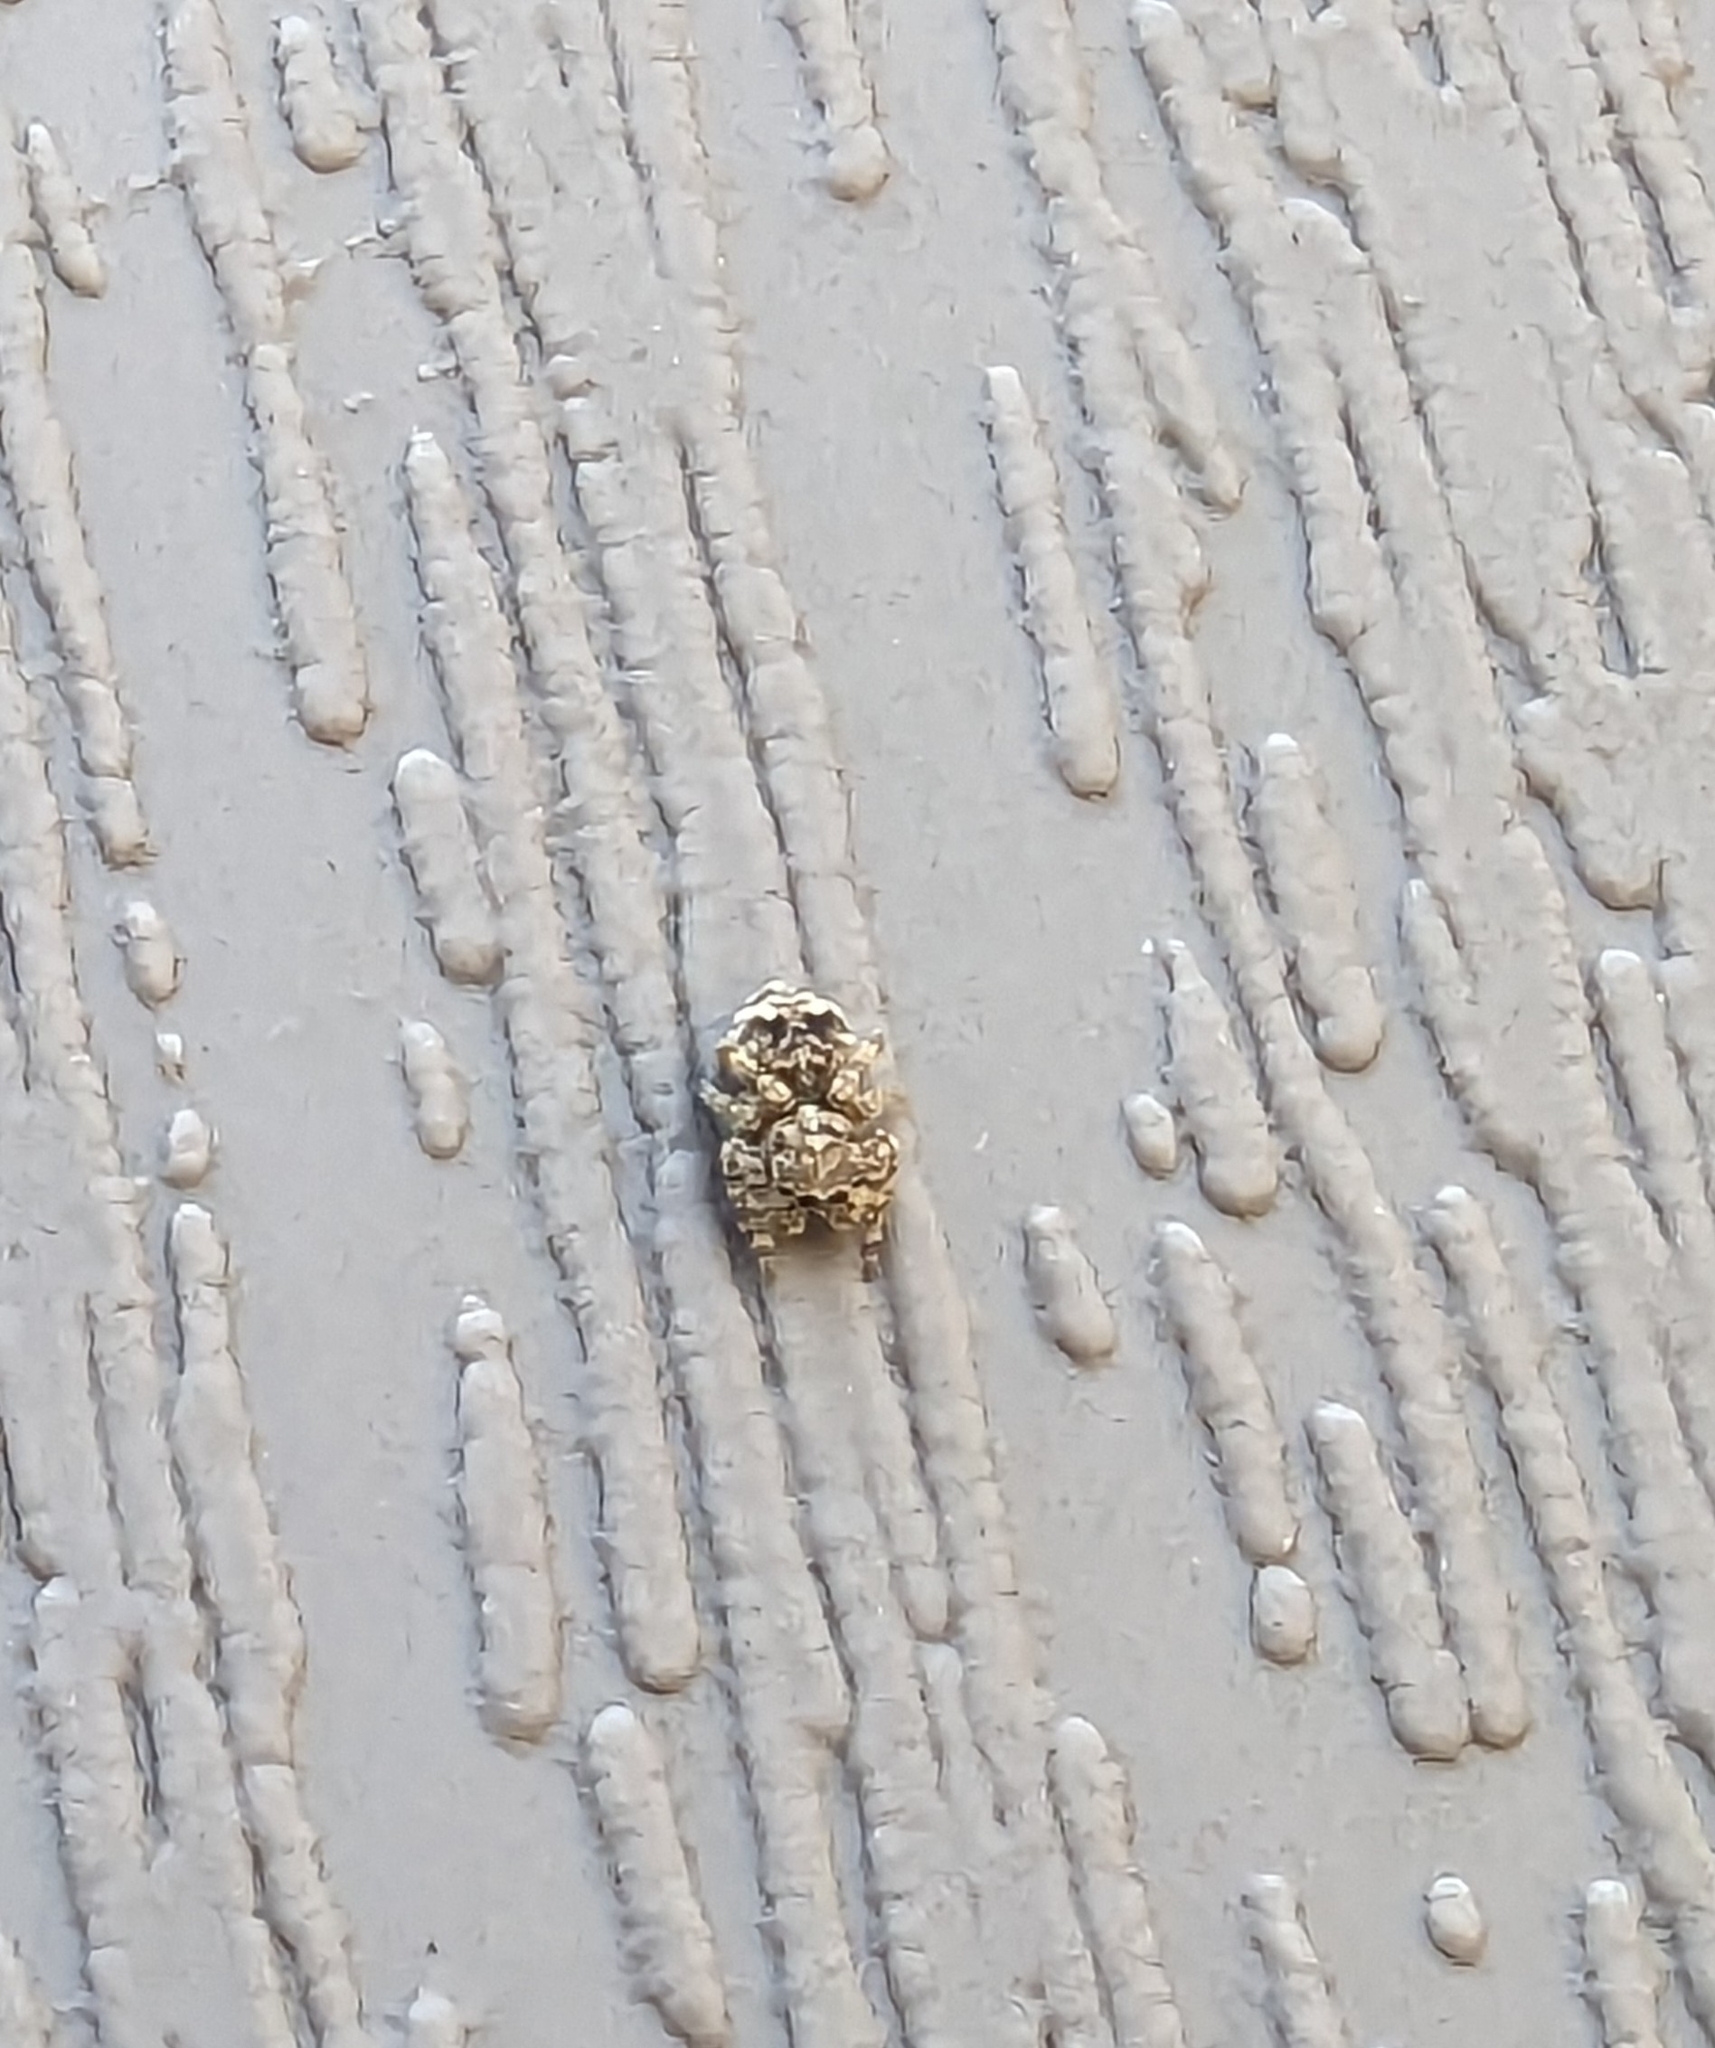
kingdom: Animalia
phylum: Arthropoda
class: Arachnida
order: Araneae
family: Salticidae
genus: Attulus
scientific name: Attulus fasciger
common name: Asiatic wall jumping spider
